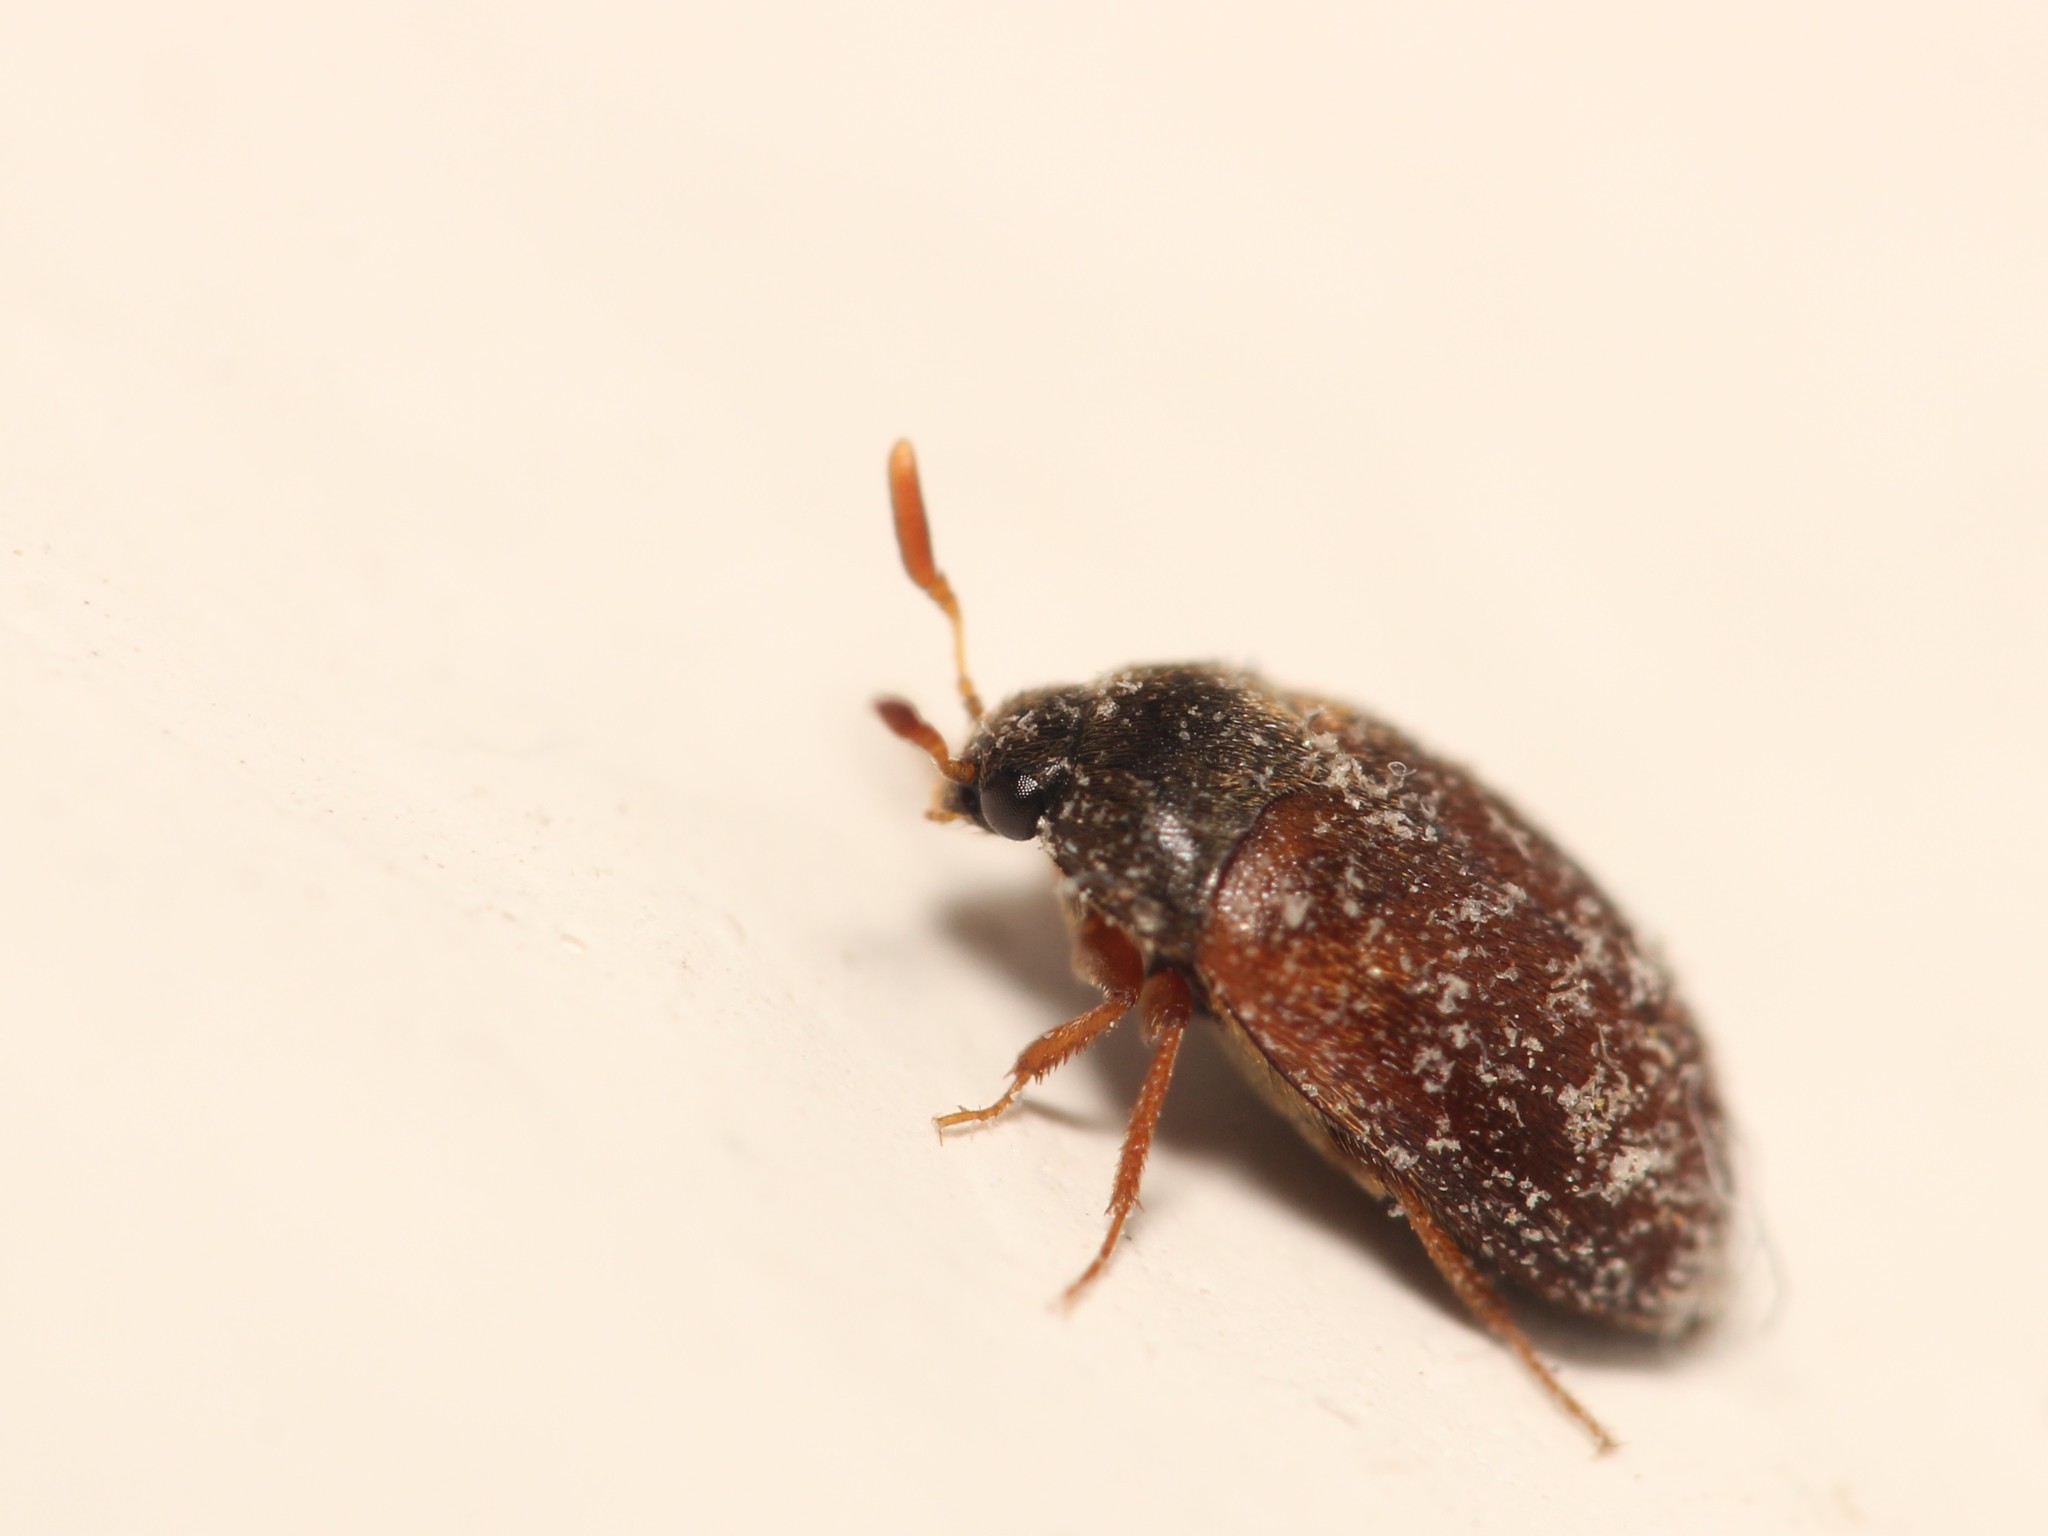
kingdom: Animalia
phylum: Arthropoda
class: Insecta
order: Coleoptera
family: Dermestidae
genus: Attagenus
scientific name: Attagenus smirnovi
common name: Brown carpet beetle
